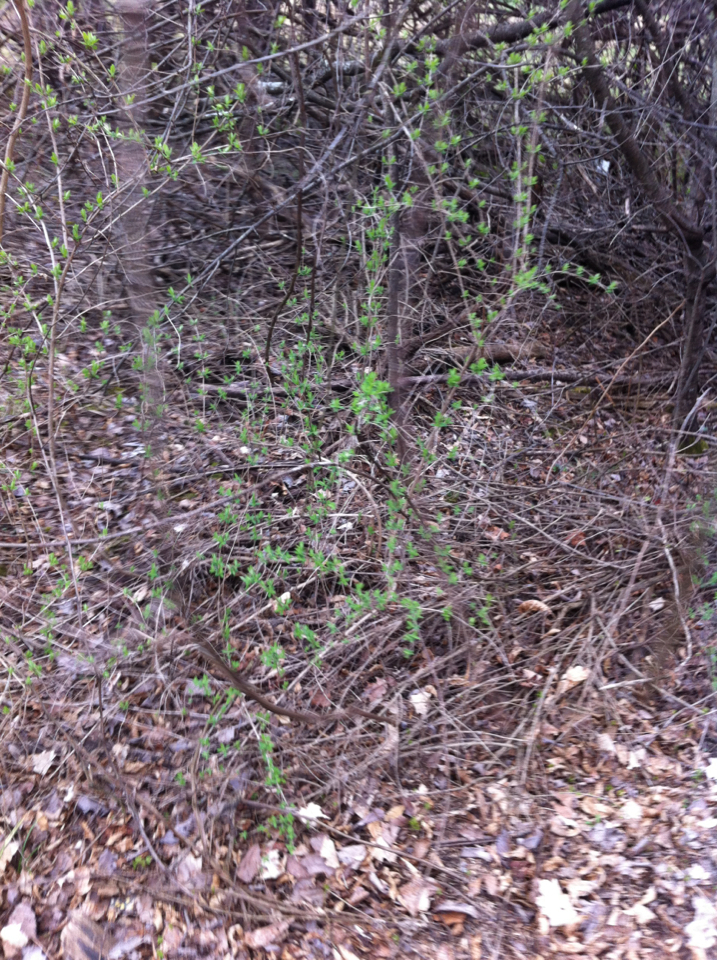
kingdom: Plantae
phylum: Tracheophyta
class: Magnoliopsida
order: Dipsacales
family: Caprifoliaceae
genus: Lonicera
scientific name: Lonicera morrowii
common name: Morrow's honeysuckle
